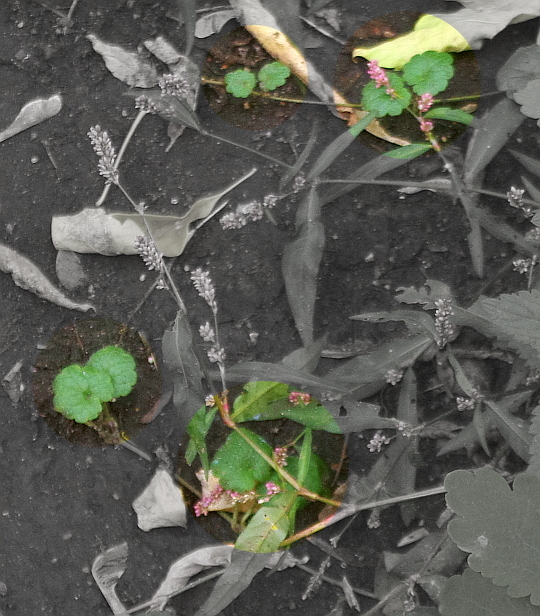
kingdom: Plantae
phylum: Tracheophyta
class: Magnoliopsida
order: Lamiales
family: Lamiaceae
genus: Glechoma
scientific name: Glechoma hederacea
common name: Ground ivy
